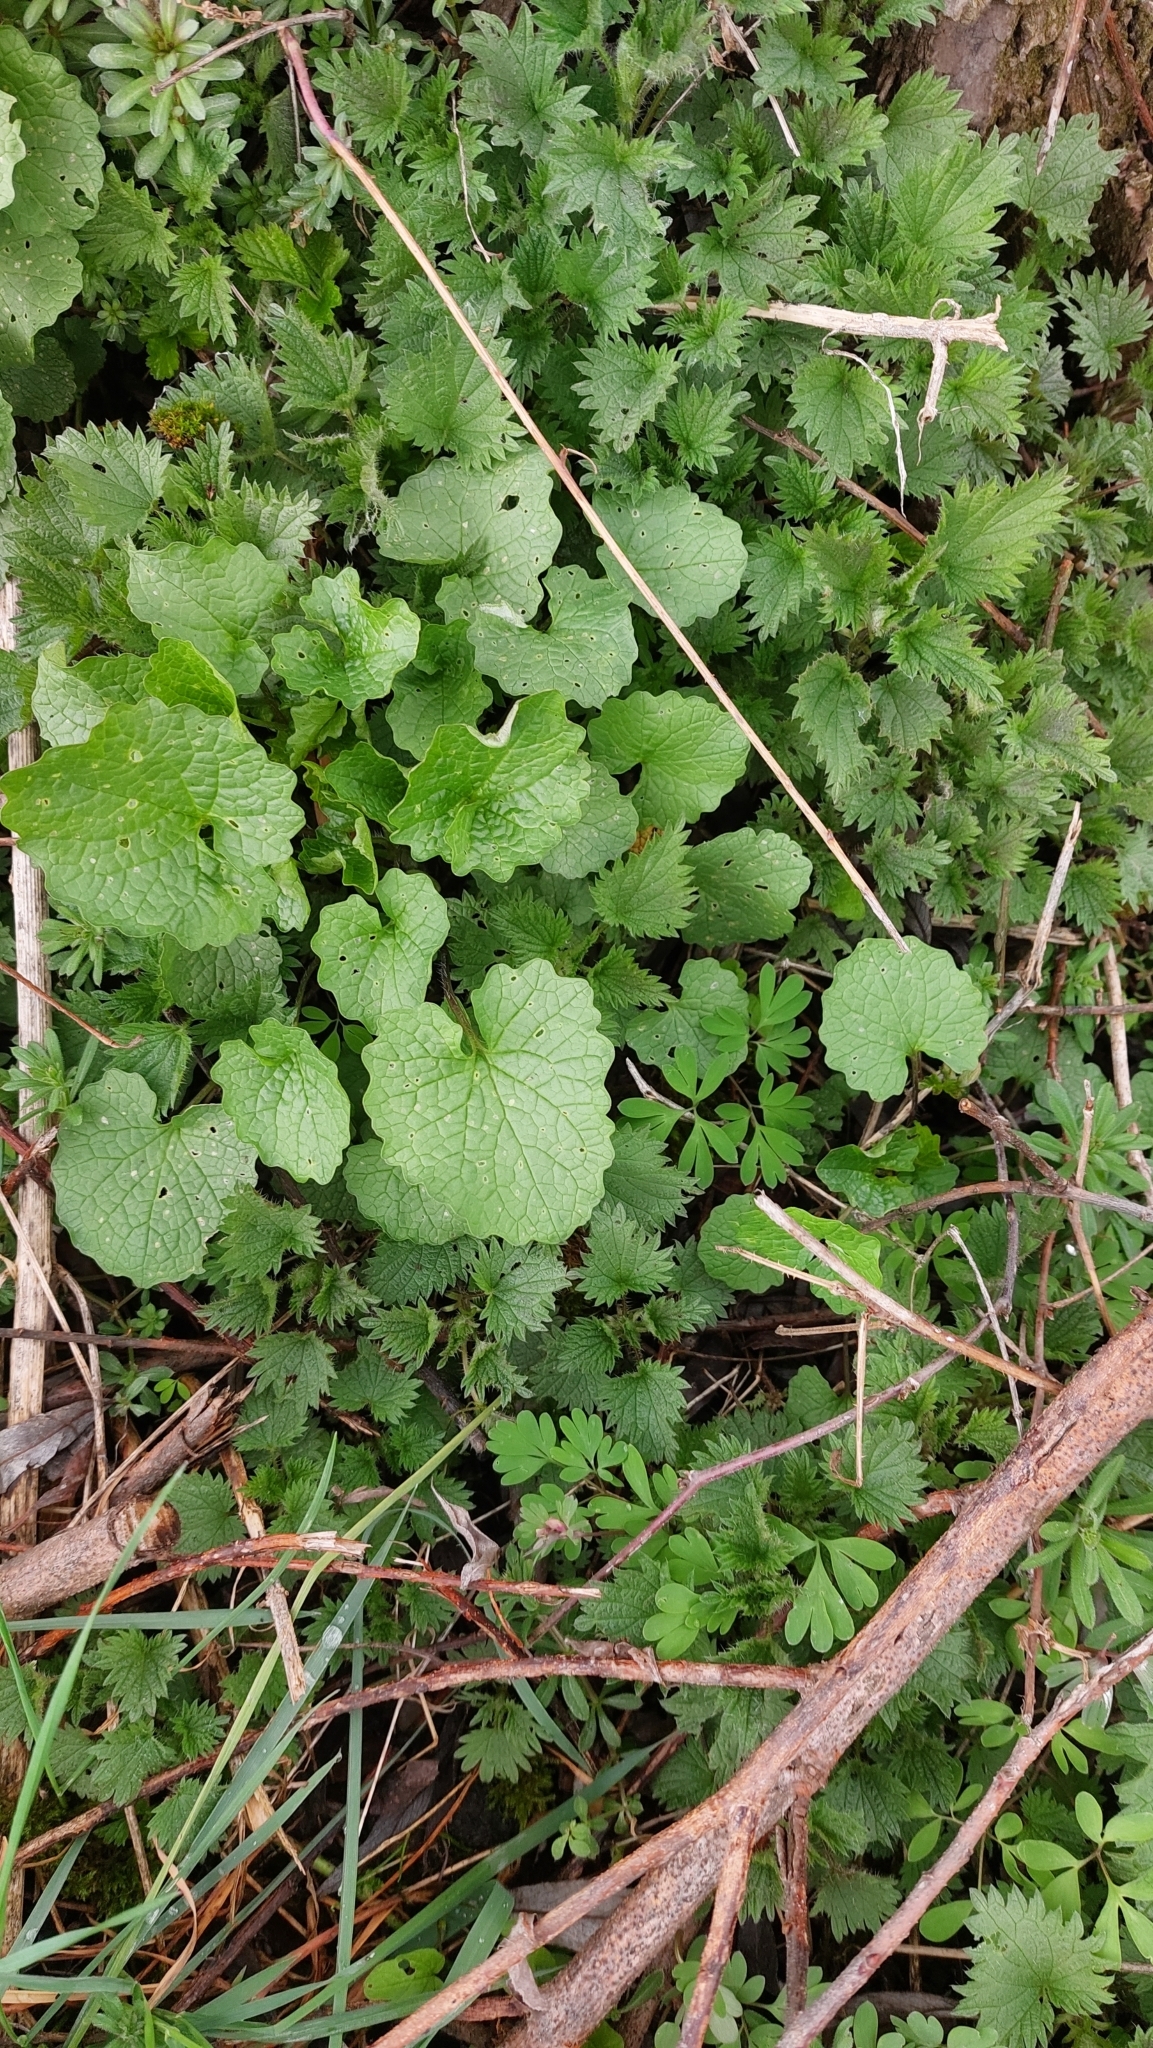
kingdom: Plantae
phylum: Tracheophyta
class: Magnoliopsida
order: Brassicales
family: Brassicaceae
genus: Alliaria
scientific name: Alliaria petiolata
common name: Garlic mustard
